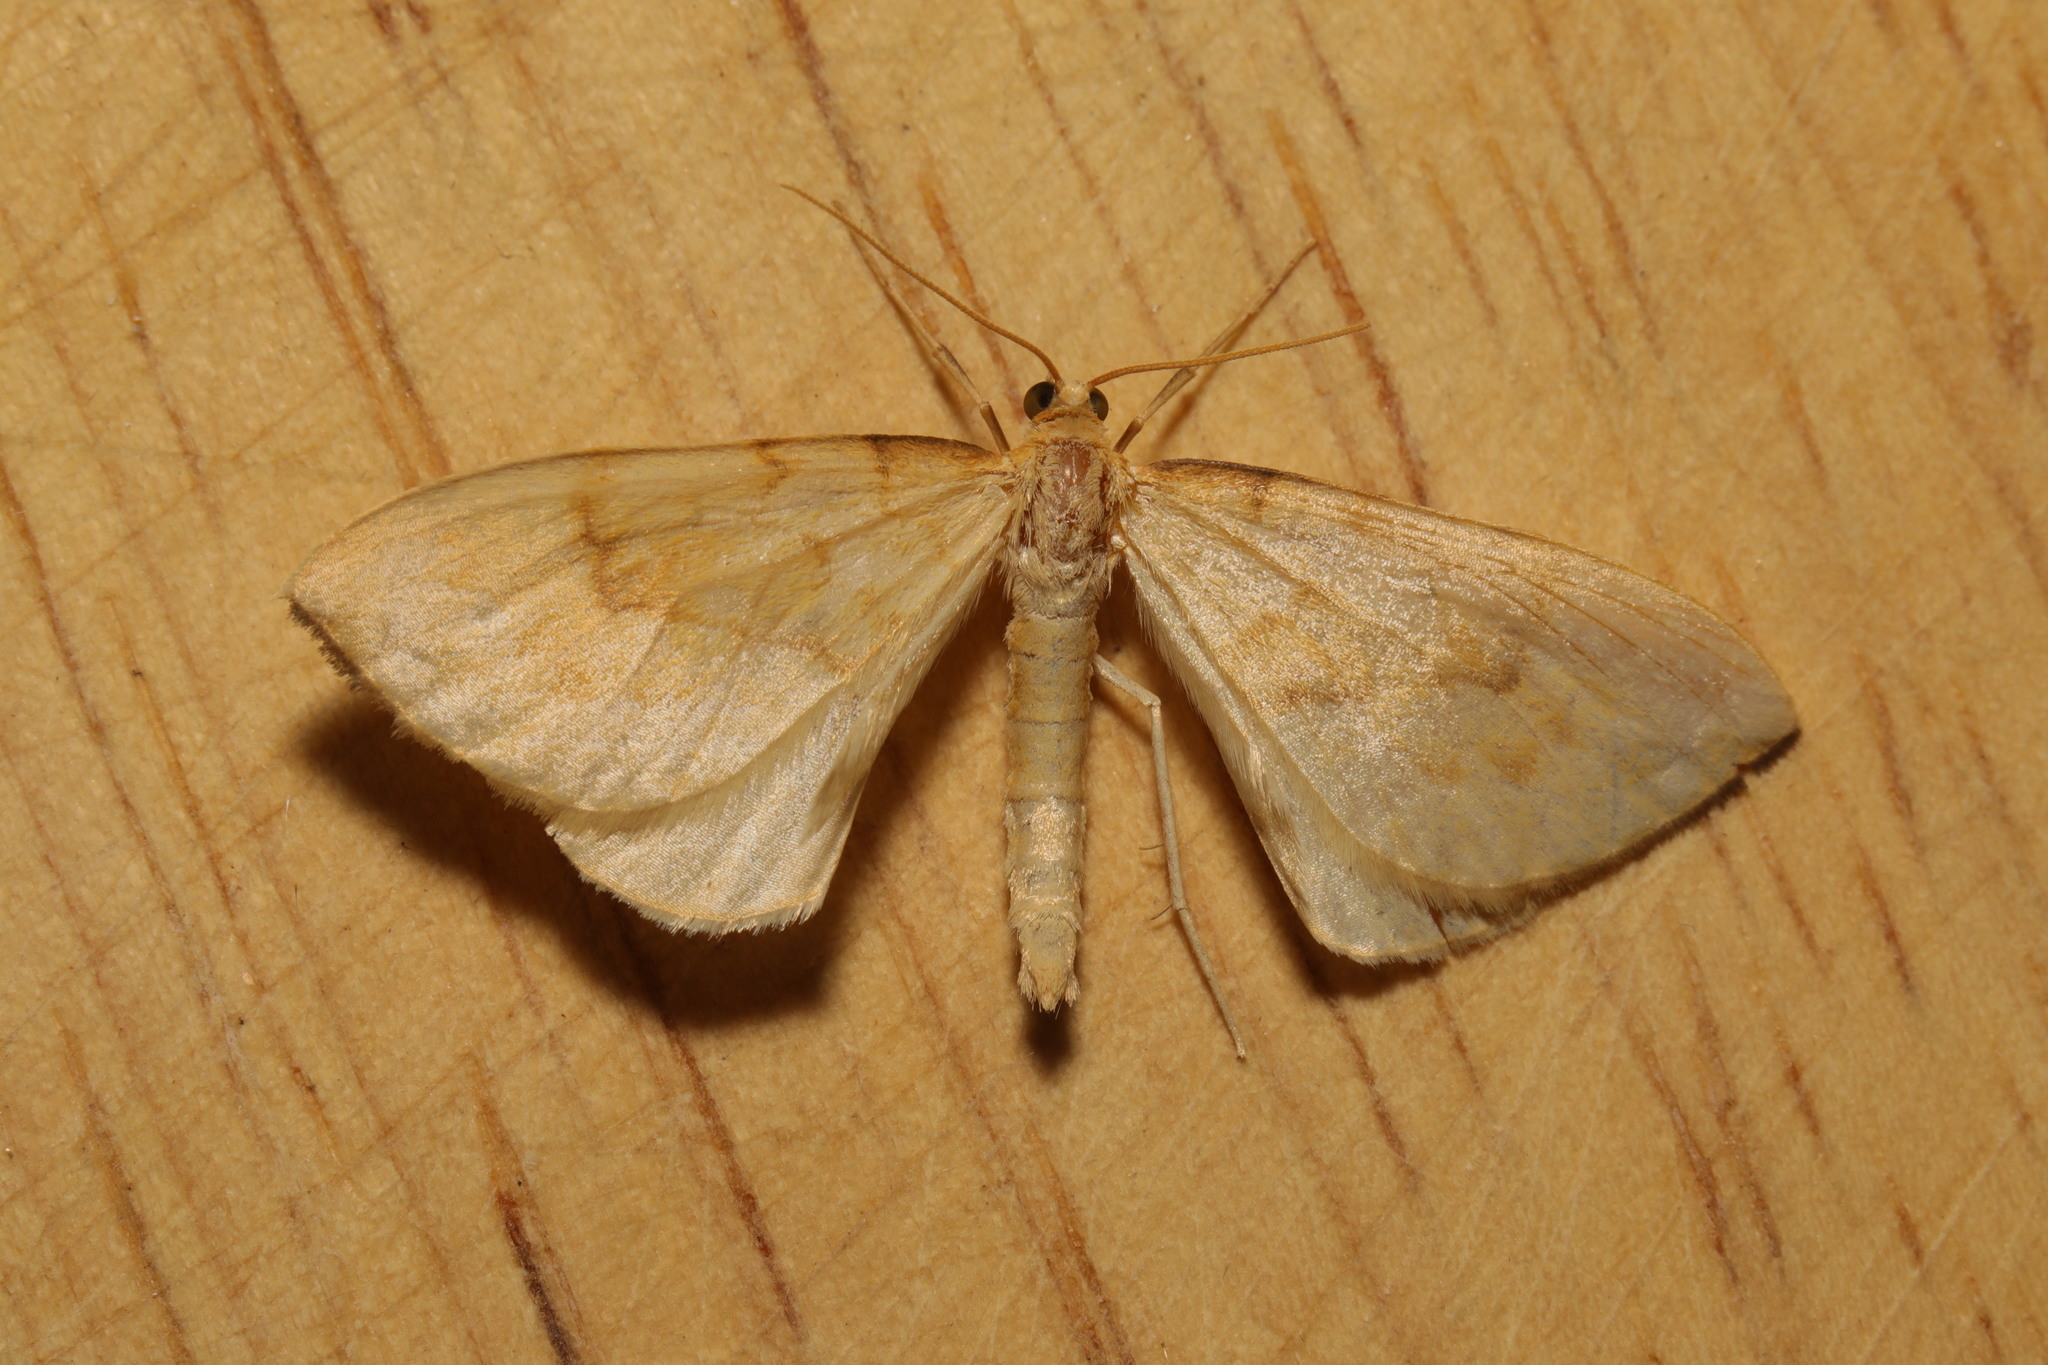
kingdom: Animalia
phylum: Arthropoda
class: Insecta
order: Lepidoptera
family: Geometridae
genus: Eulithis
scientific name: Eulithis pyraliata
